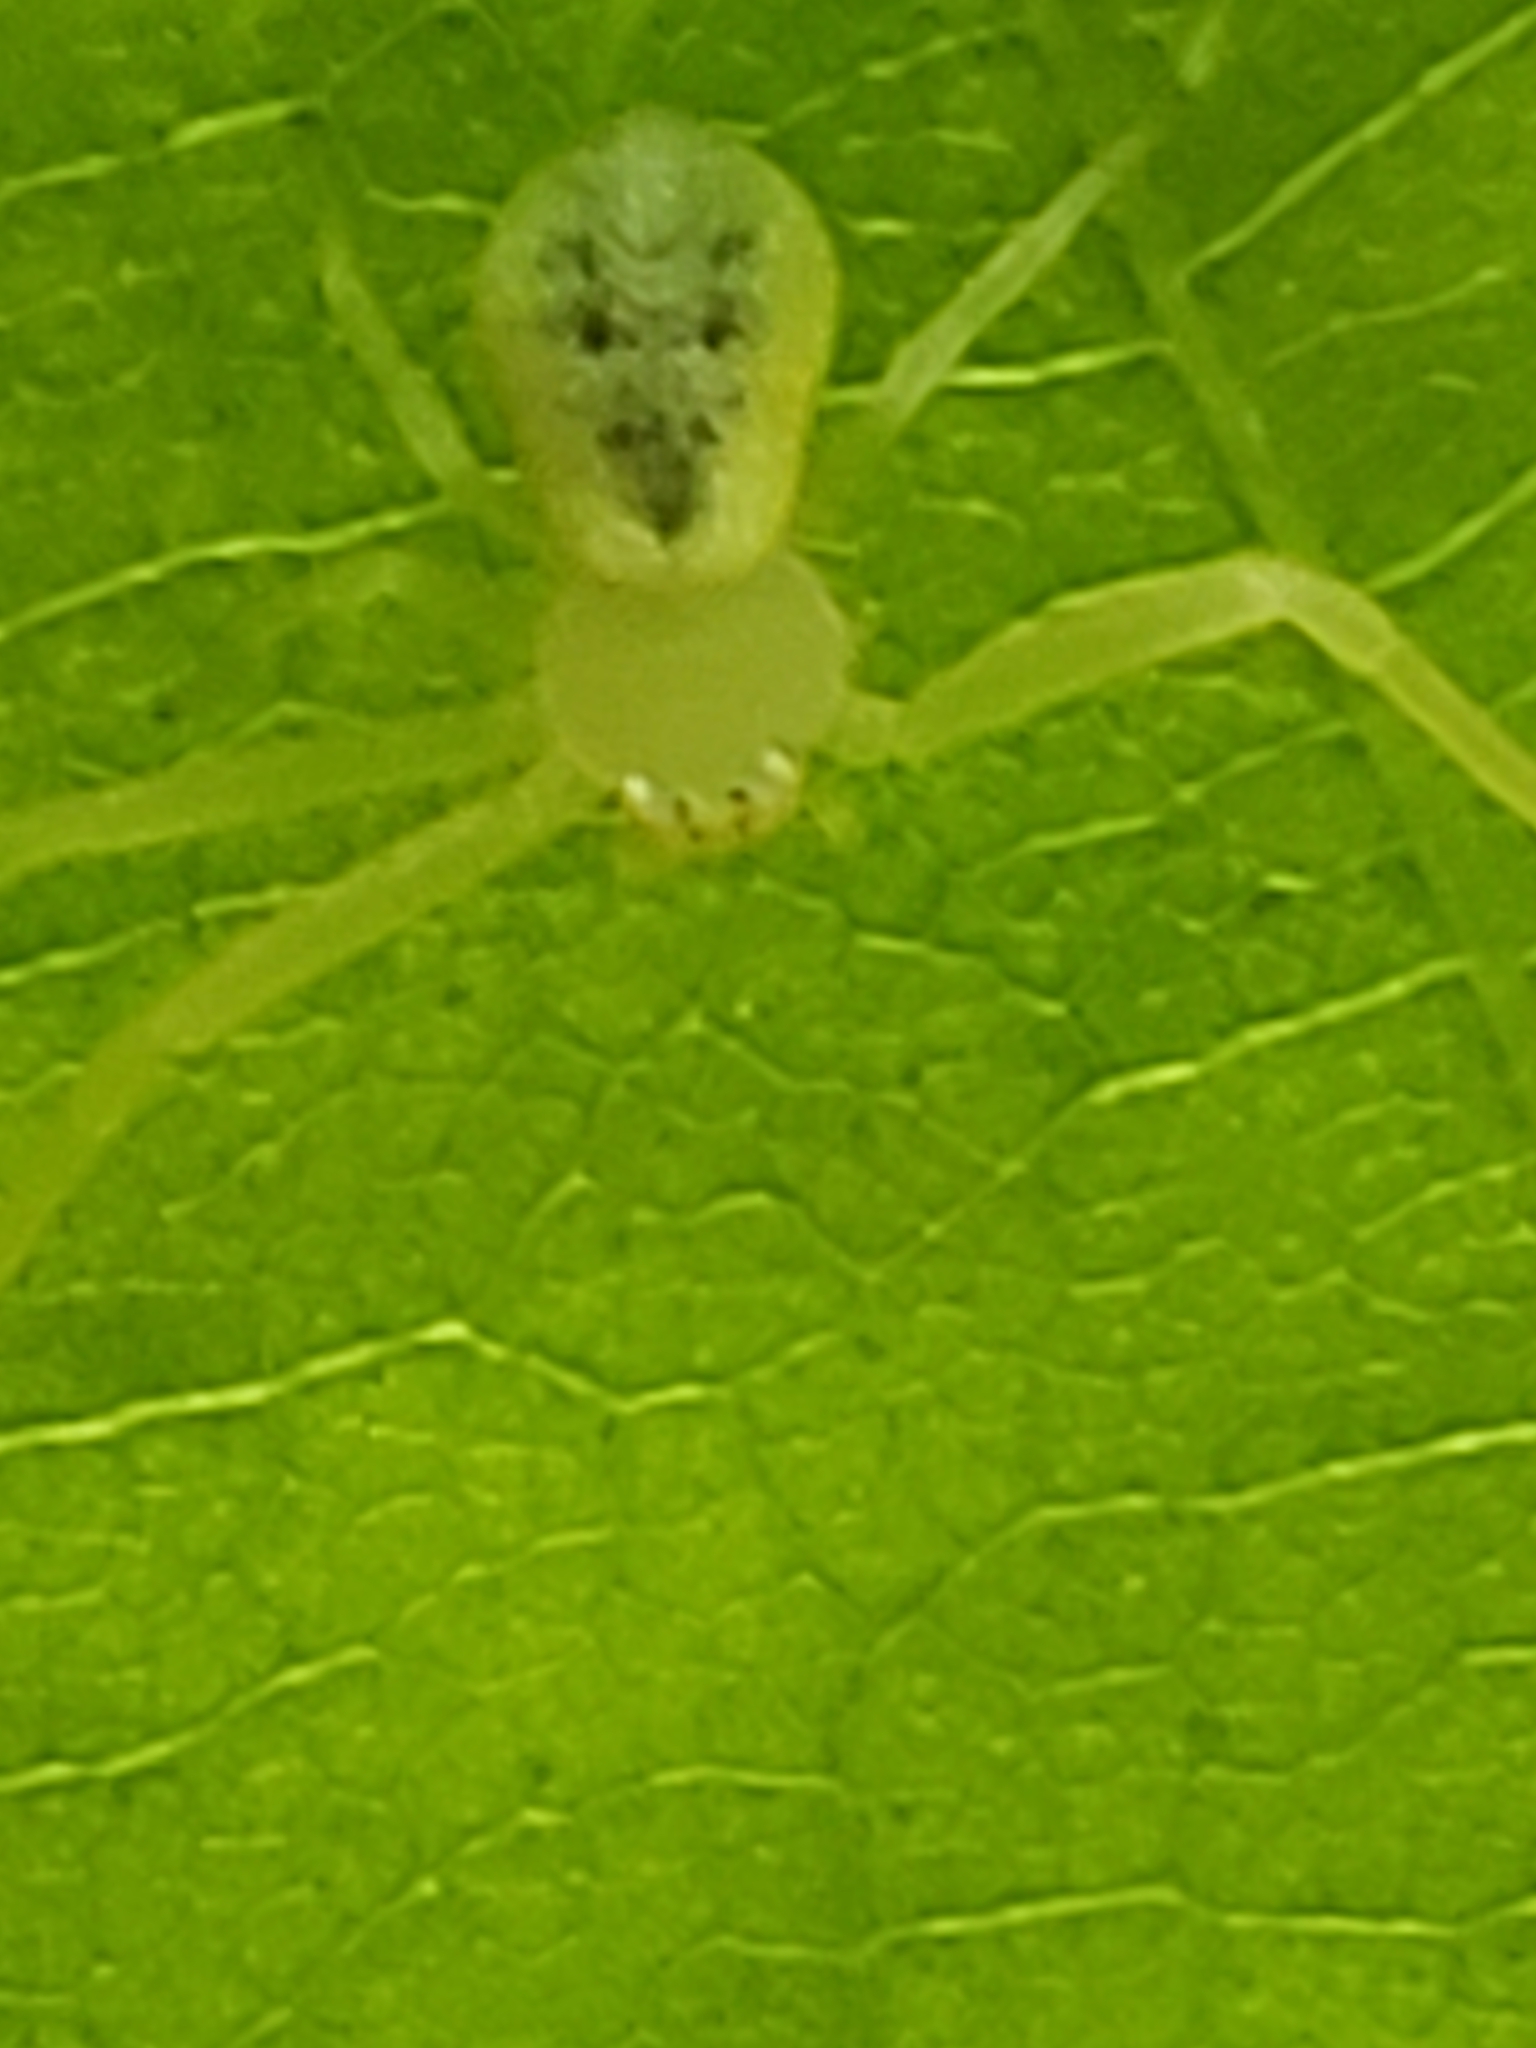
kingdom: Animalia
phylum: Arthropoda
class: Arachnida
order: Araneae
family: Thomisidae
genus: Misumessus
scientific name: Misumessus oblongus
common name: American green crab spider
